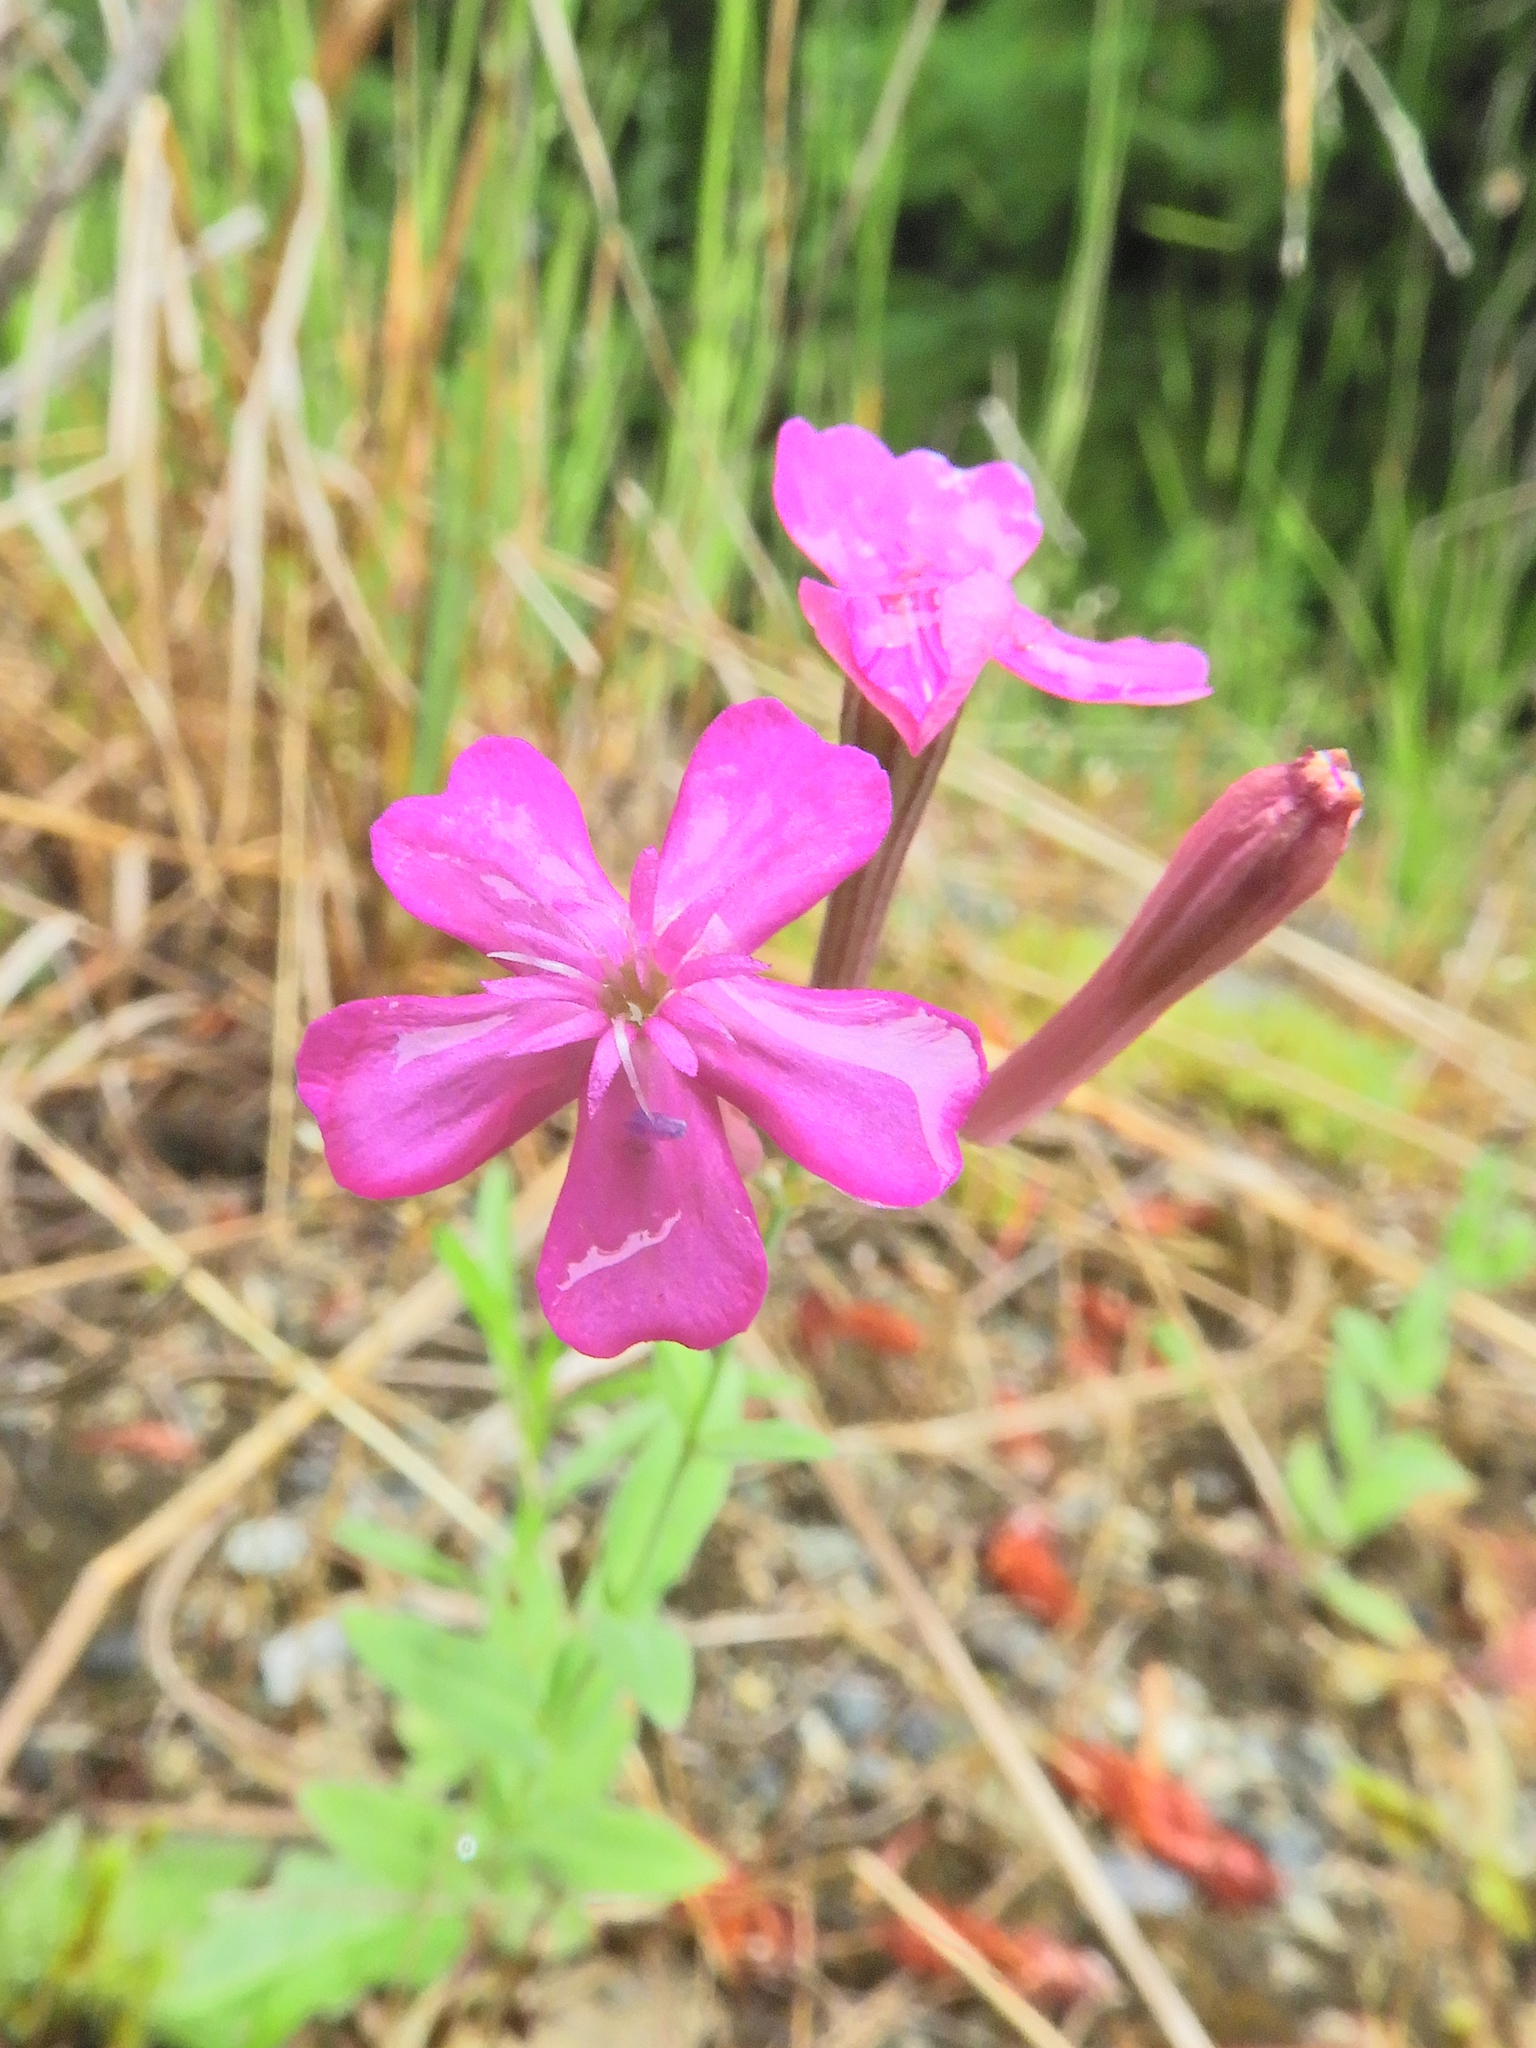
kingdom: Plantae
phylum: Tracheophyta
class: Magnoliopsida
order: Caryophyllales
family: Caryophyllaceae
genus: Atocion
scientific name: Atocion armeria
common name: Sweet william catchfly
